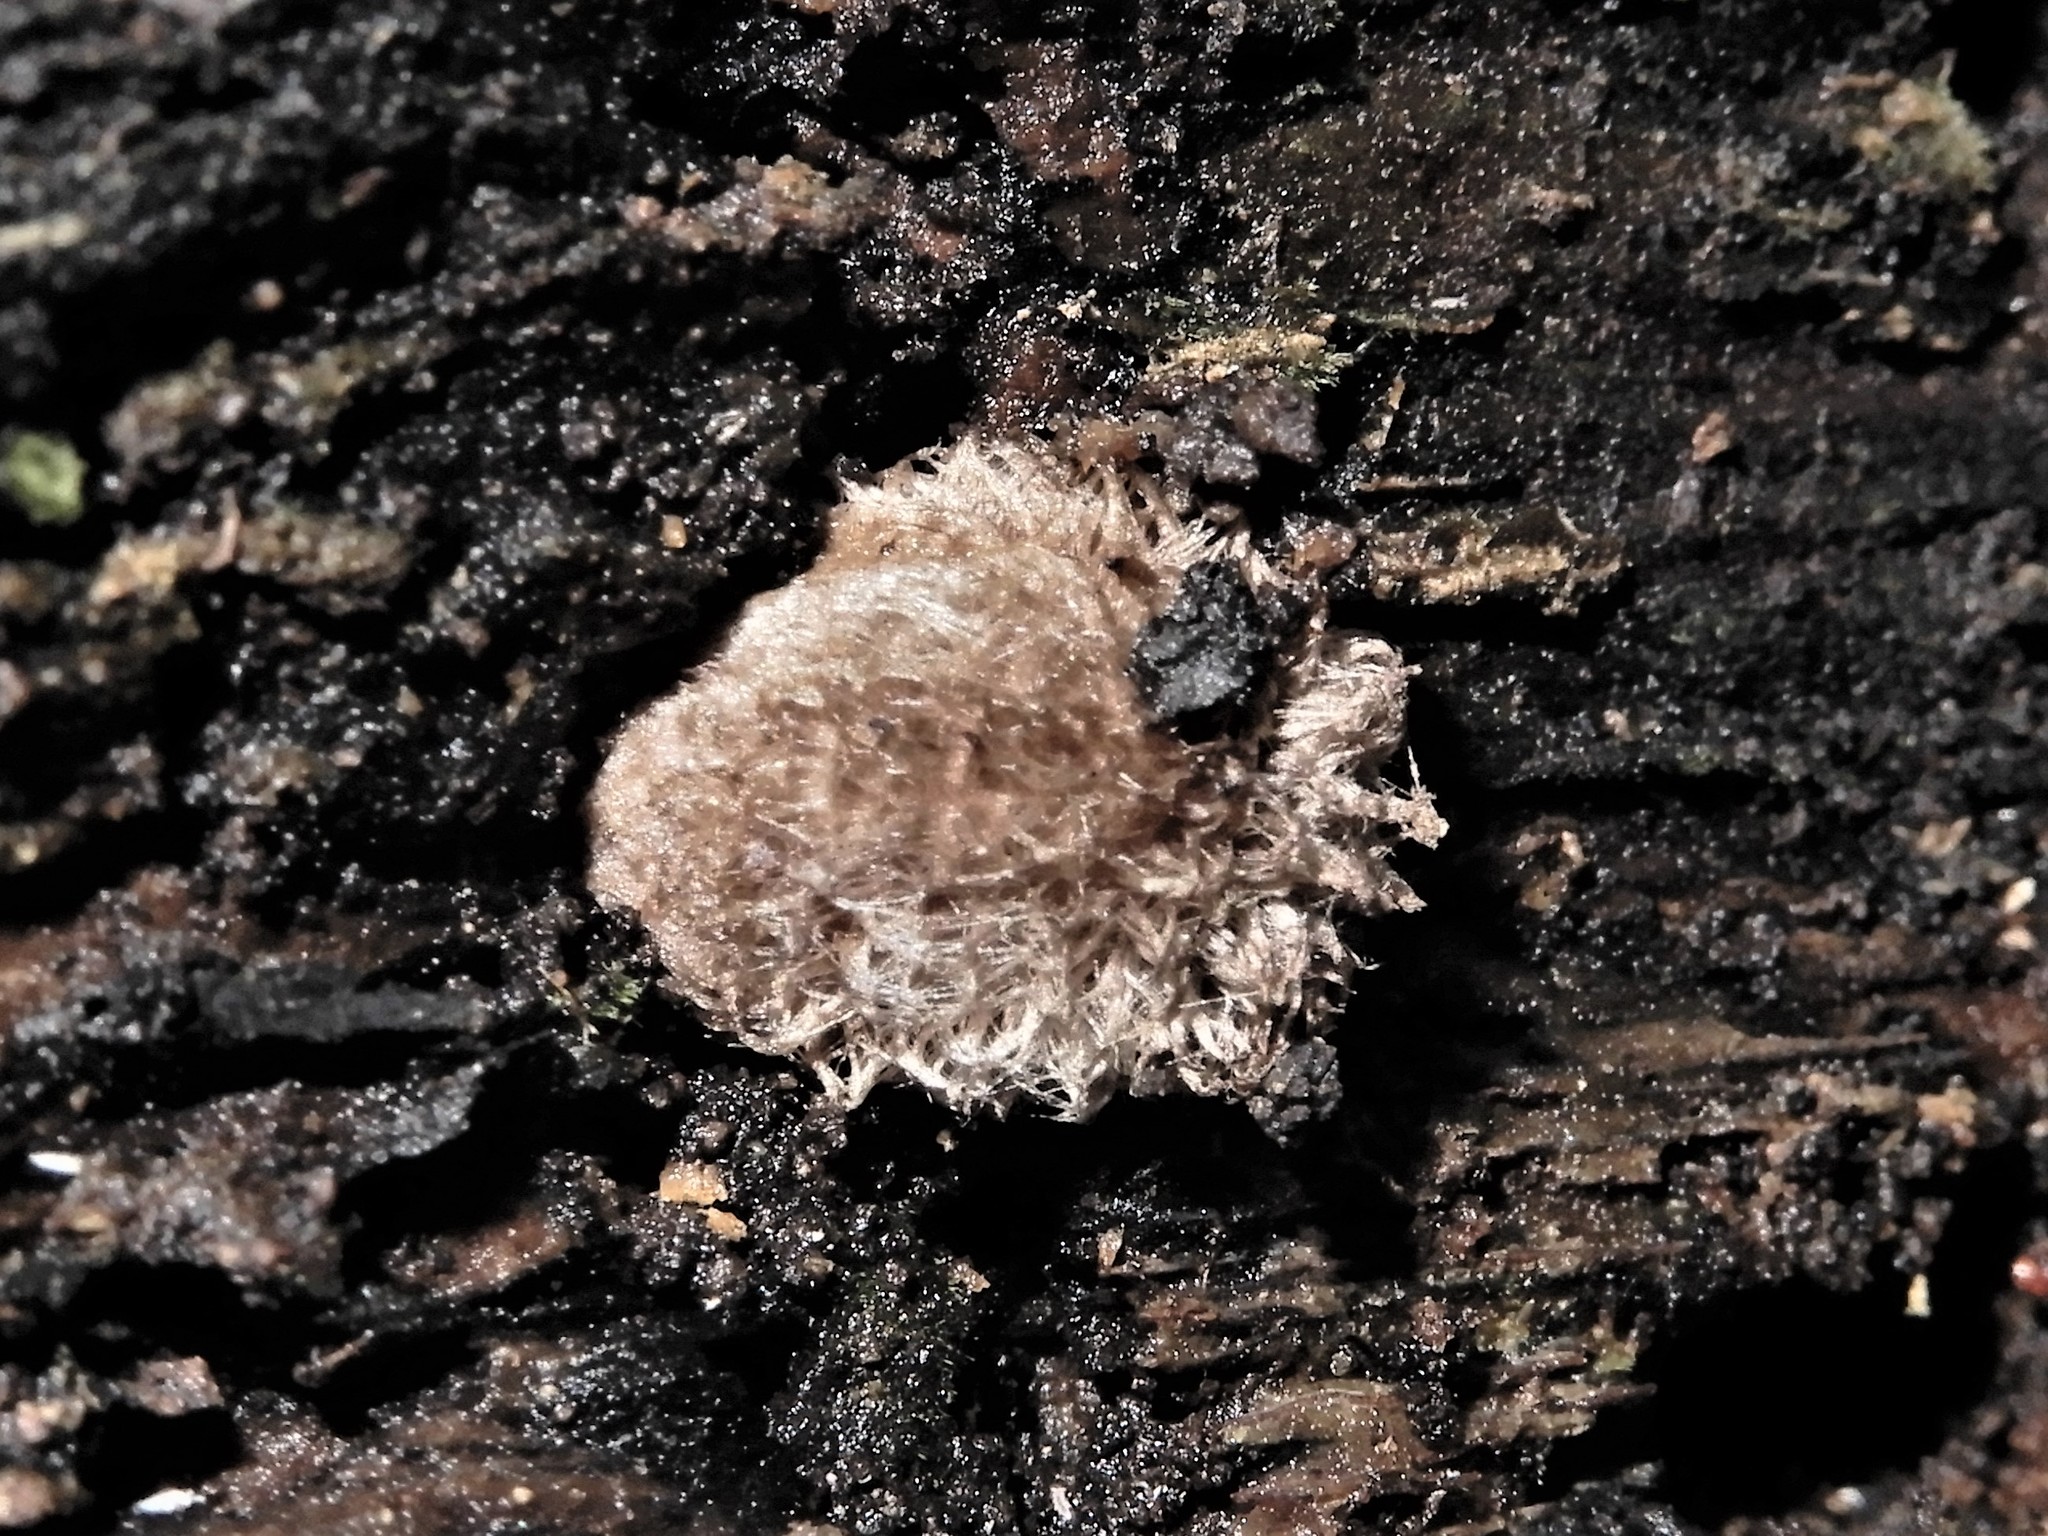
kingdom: Fungi
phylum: Basidiomycota
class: Agaricomycetes
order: Agaricales
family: Psathyrellaceae
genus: Coprinopsis
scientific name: Coprinopsis
